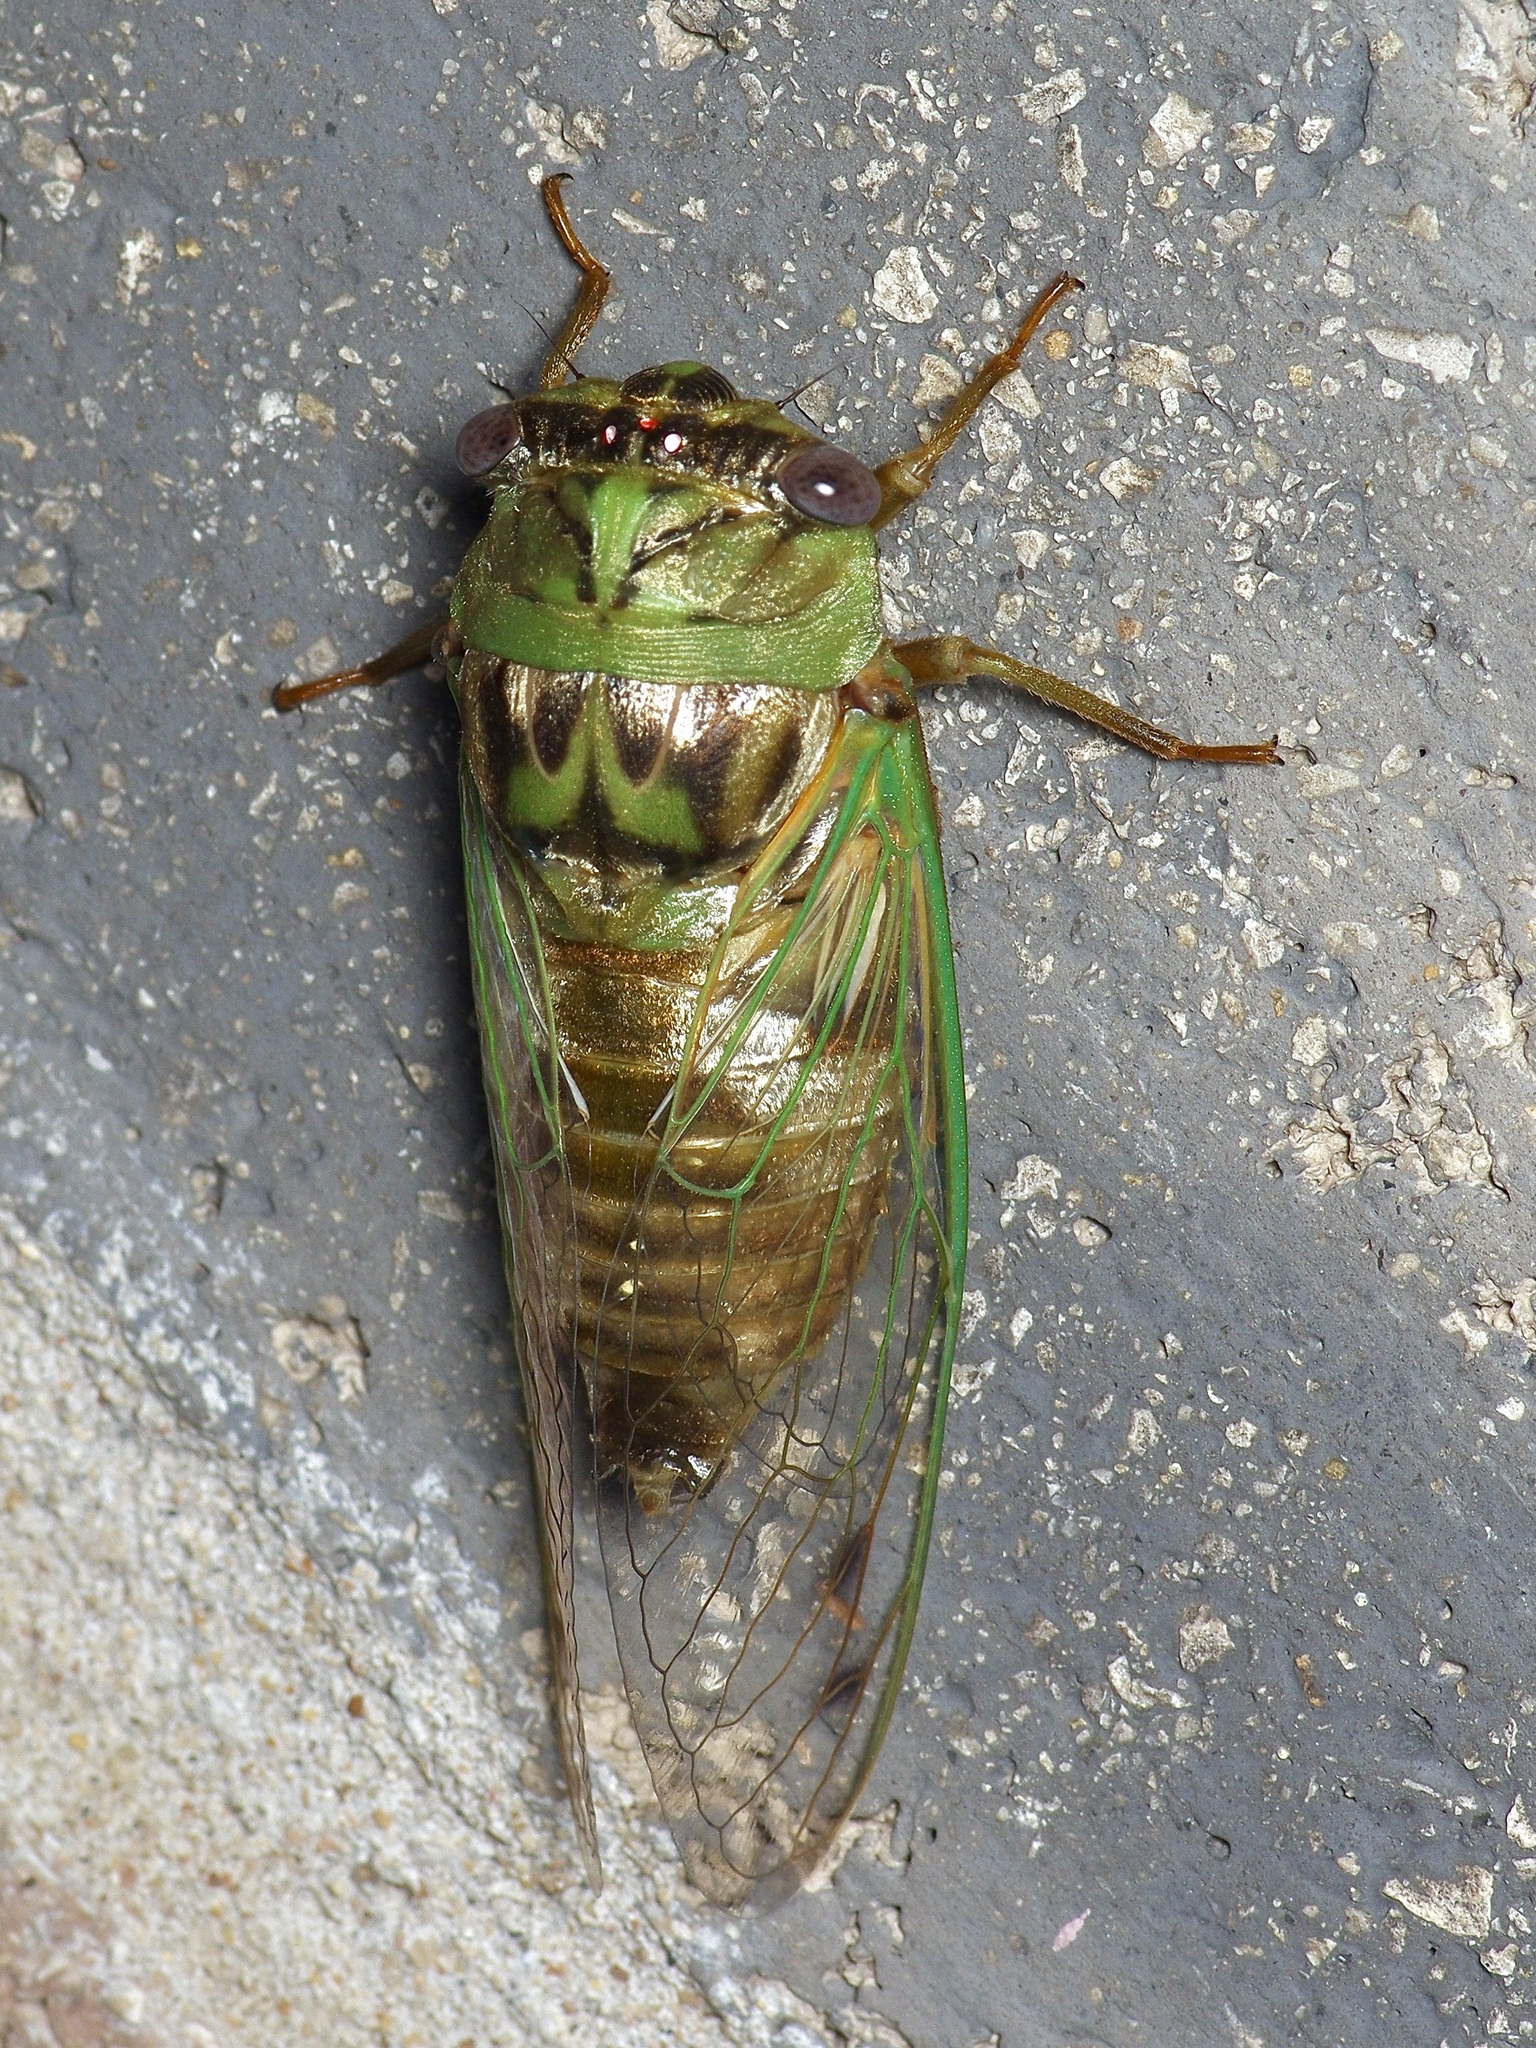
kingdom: Animalia
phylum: Arthropoda
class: Insecta
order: Hemiptera
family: Cicadidae
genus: Megatibicen
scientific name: Megatibicen resh
